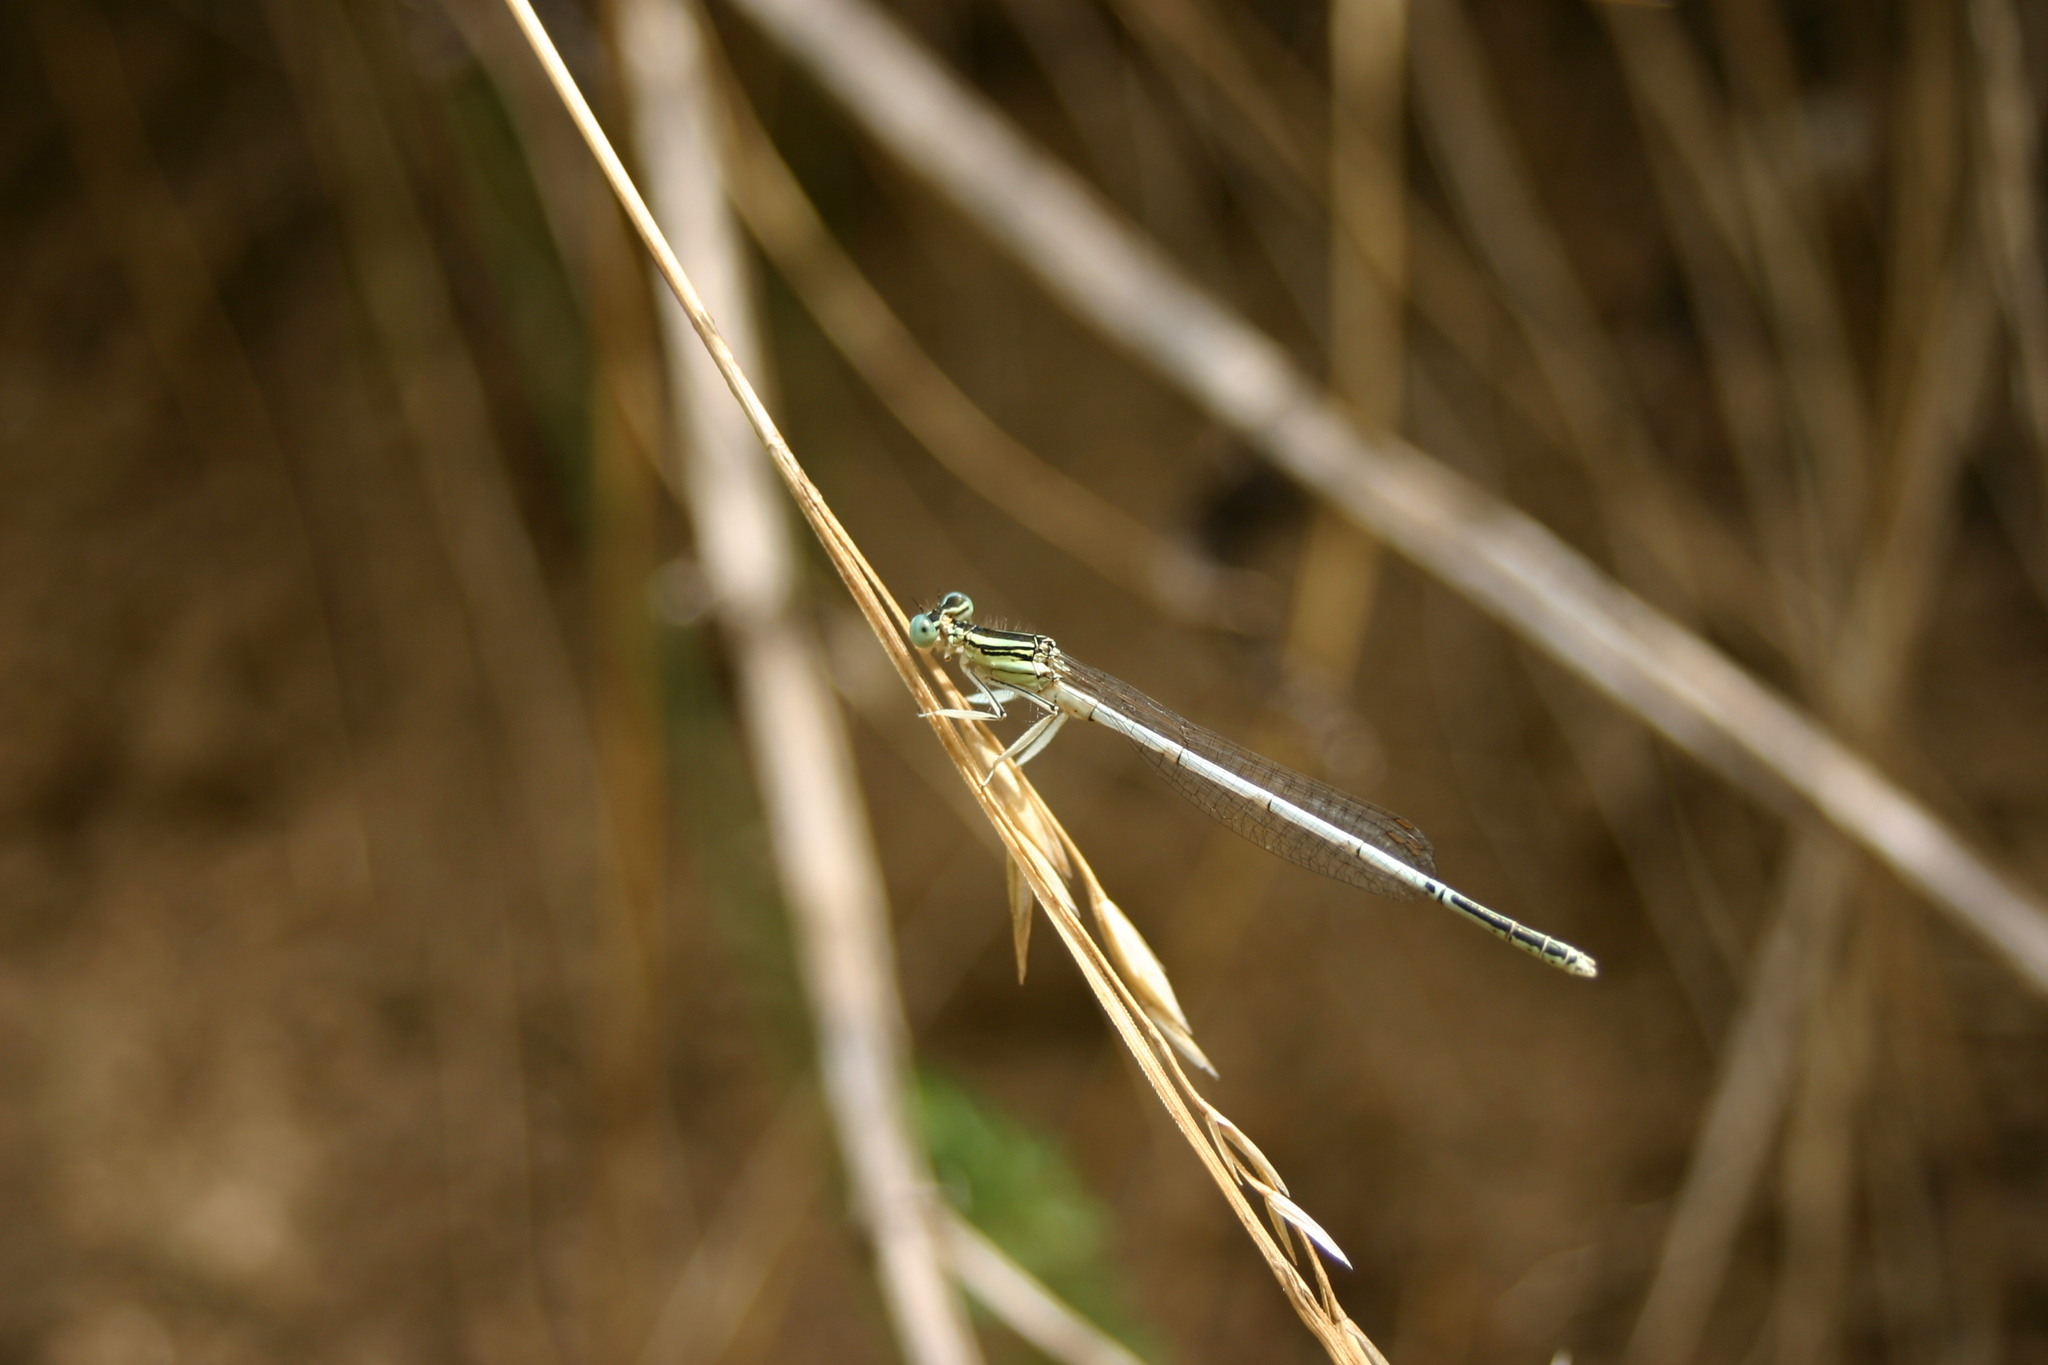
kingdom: Animalia
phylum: Arthropoda
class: Insecta
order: Odonata
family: Platycnemididae
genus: Platycnemis
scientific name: Platycnemis latipes
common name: White featherleg
